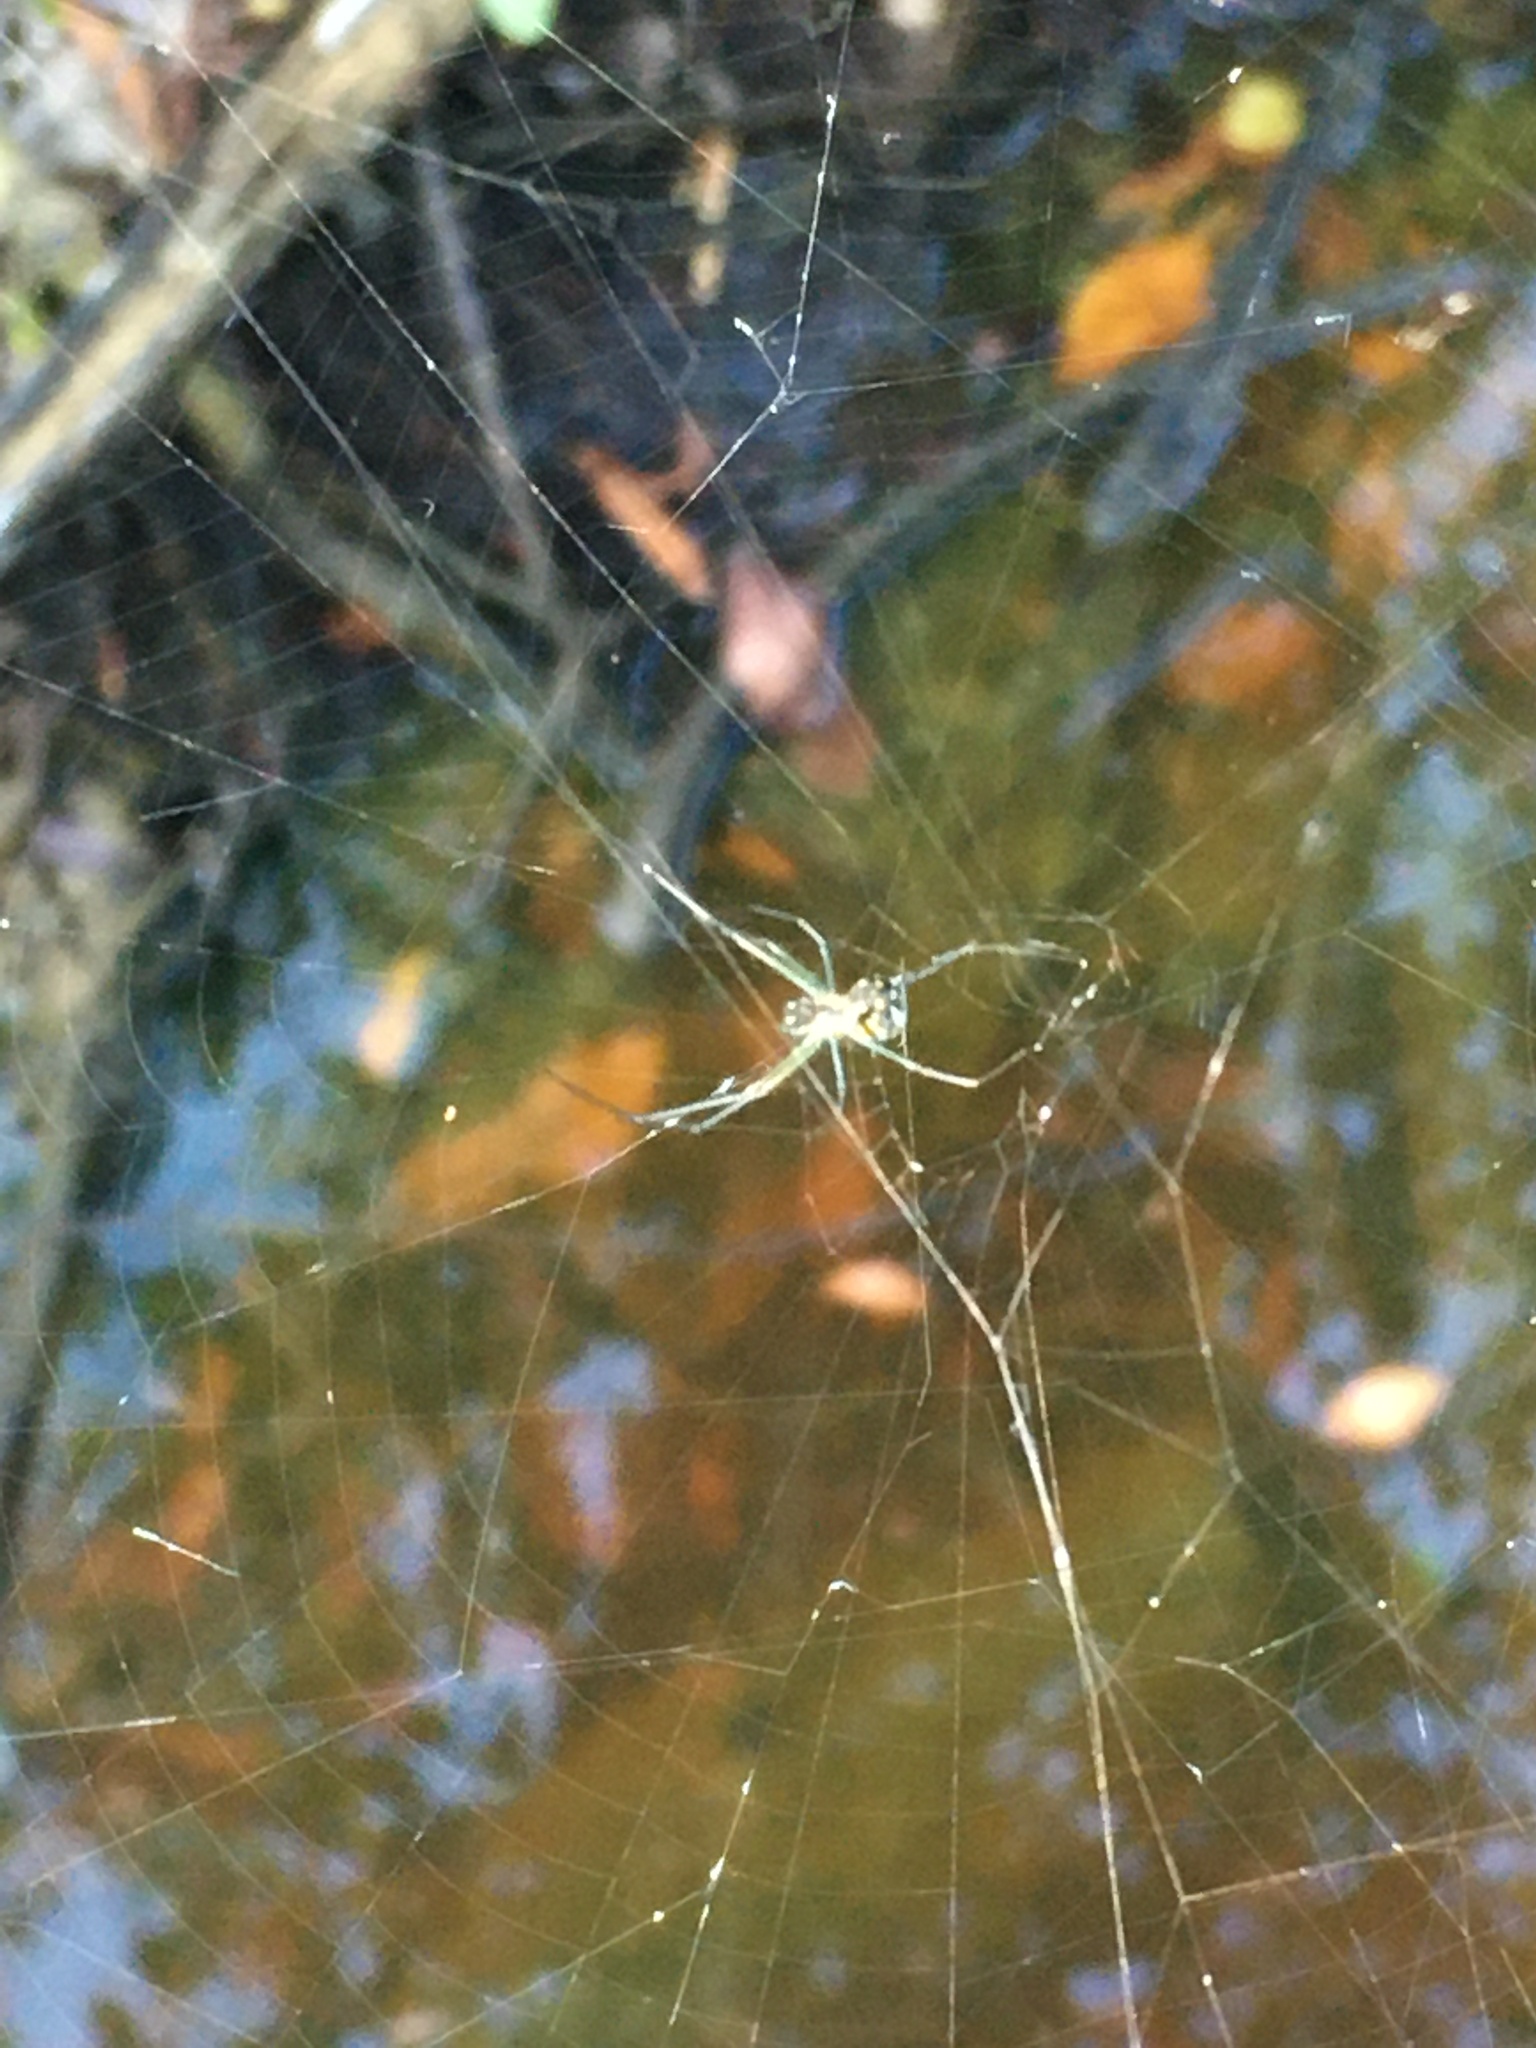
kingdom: Animalia
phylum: Arthropoda
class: Arachnida
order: Araneae
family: Tetragnathidae
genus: Leucauge
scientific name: Leucauge argyra
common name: Longjawed orb weavers
